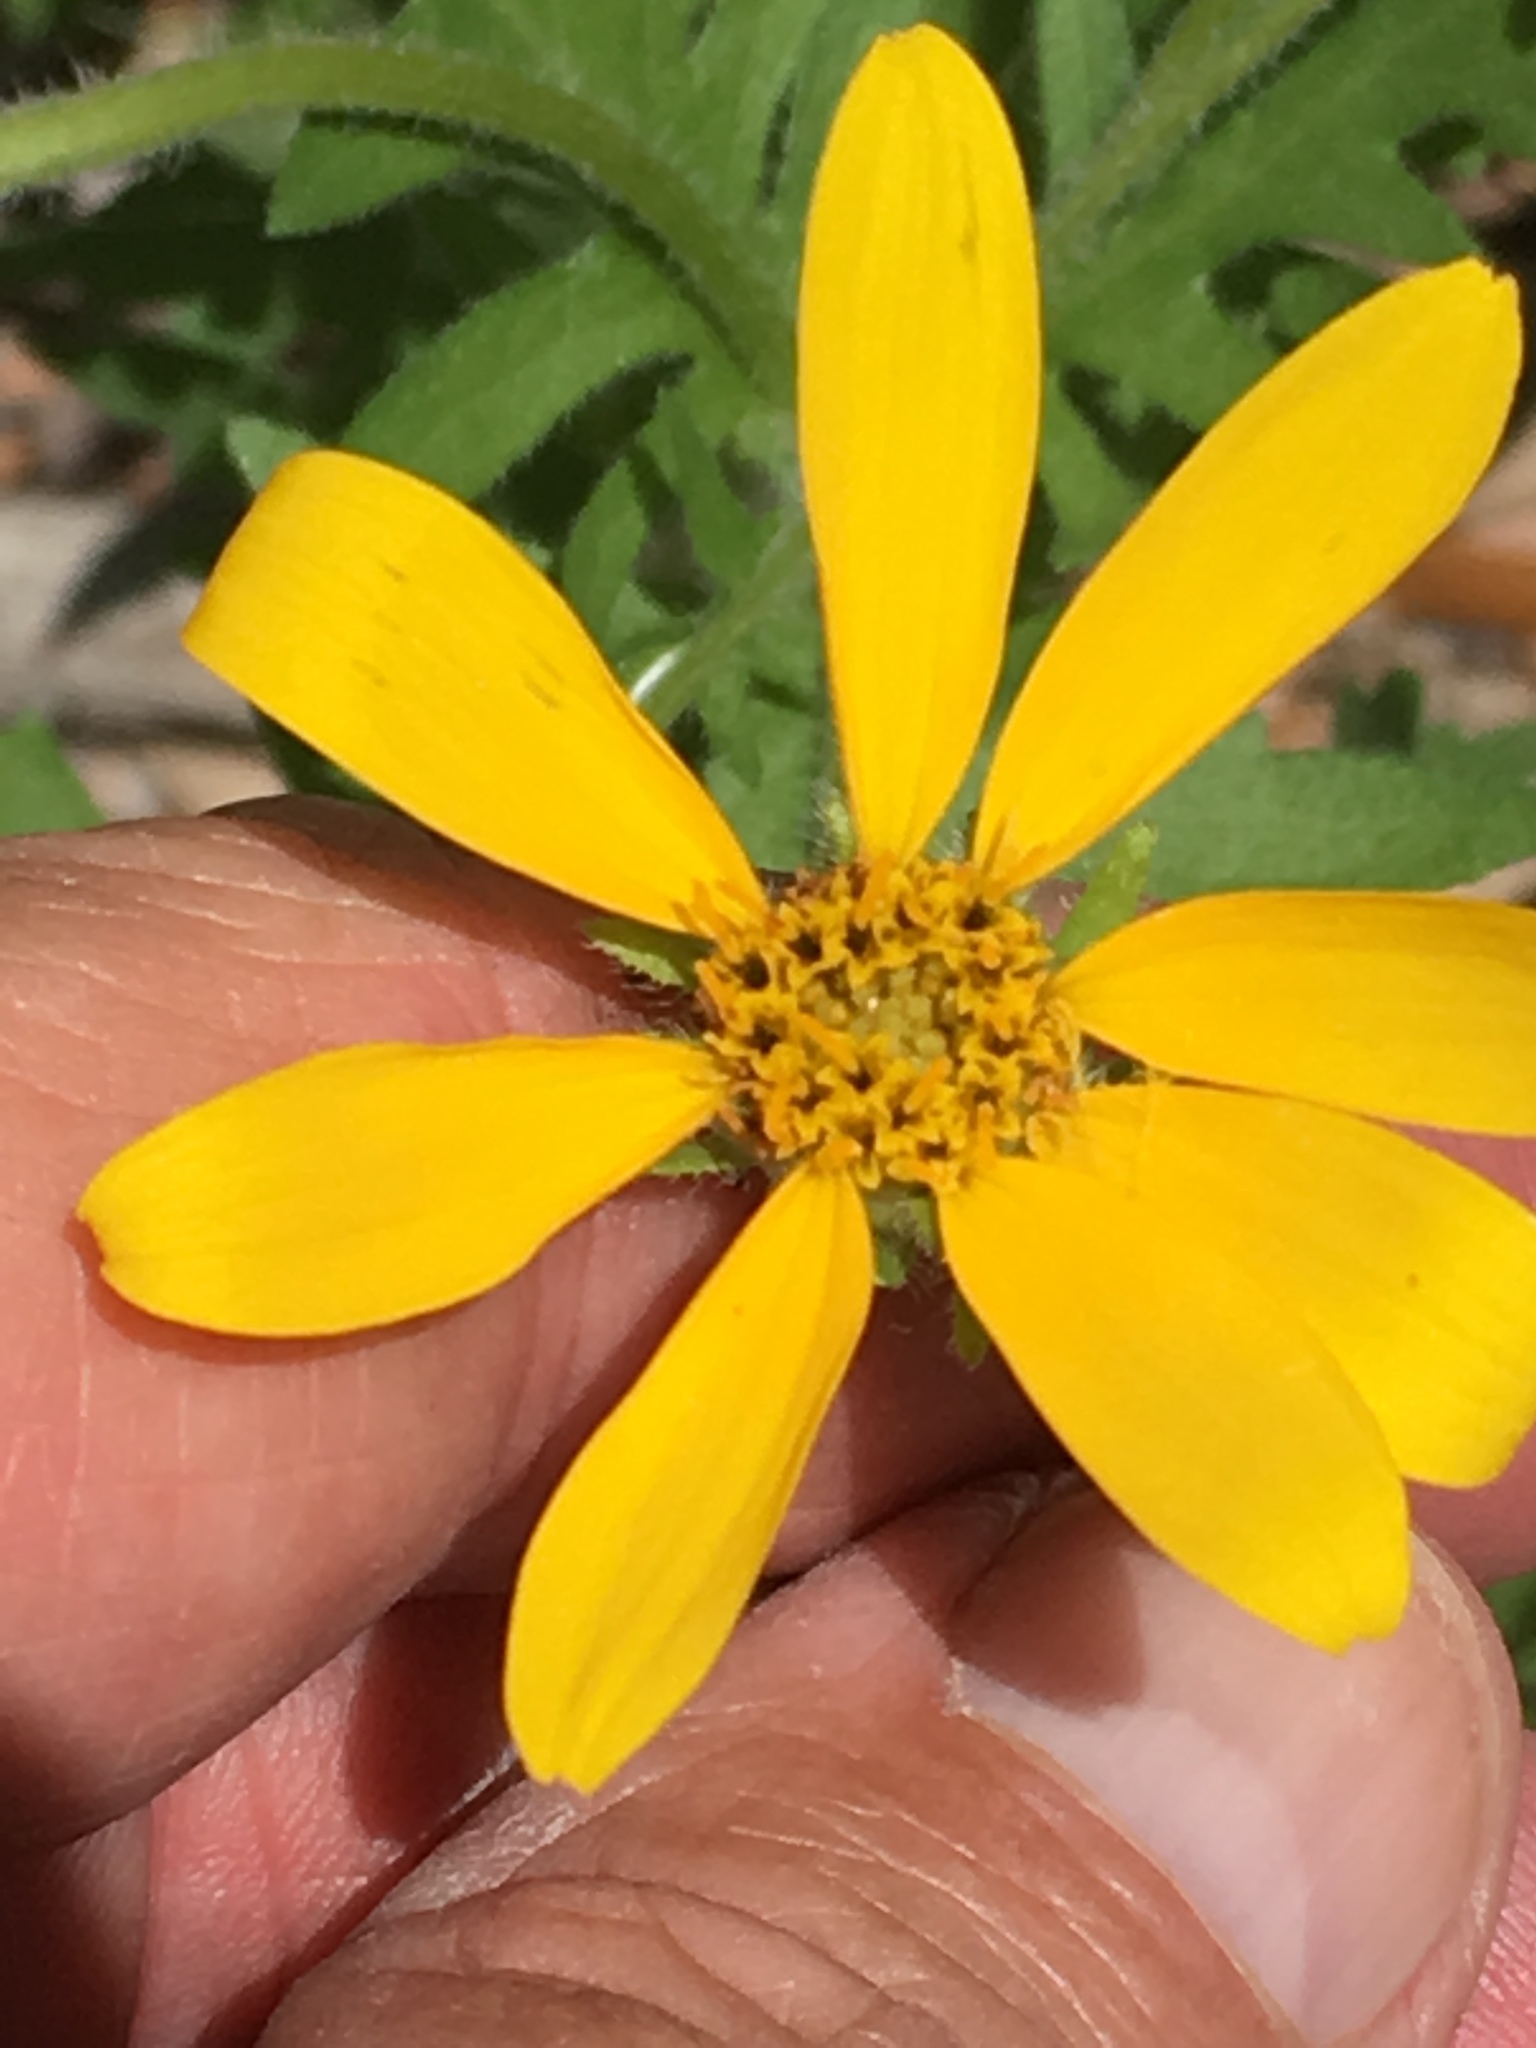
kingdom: Plantae
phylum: Tracheophyta
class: Magnoliopsida
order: Asterales
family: Asteraceae
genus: Engelmannia
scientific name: Engelmannia peristenia
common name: Engelmann's daisy
